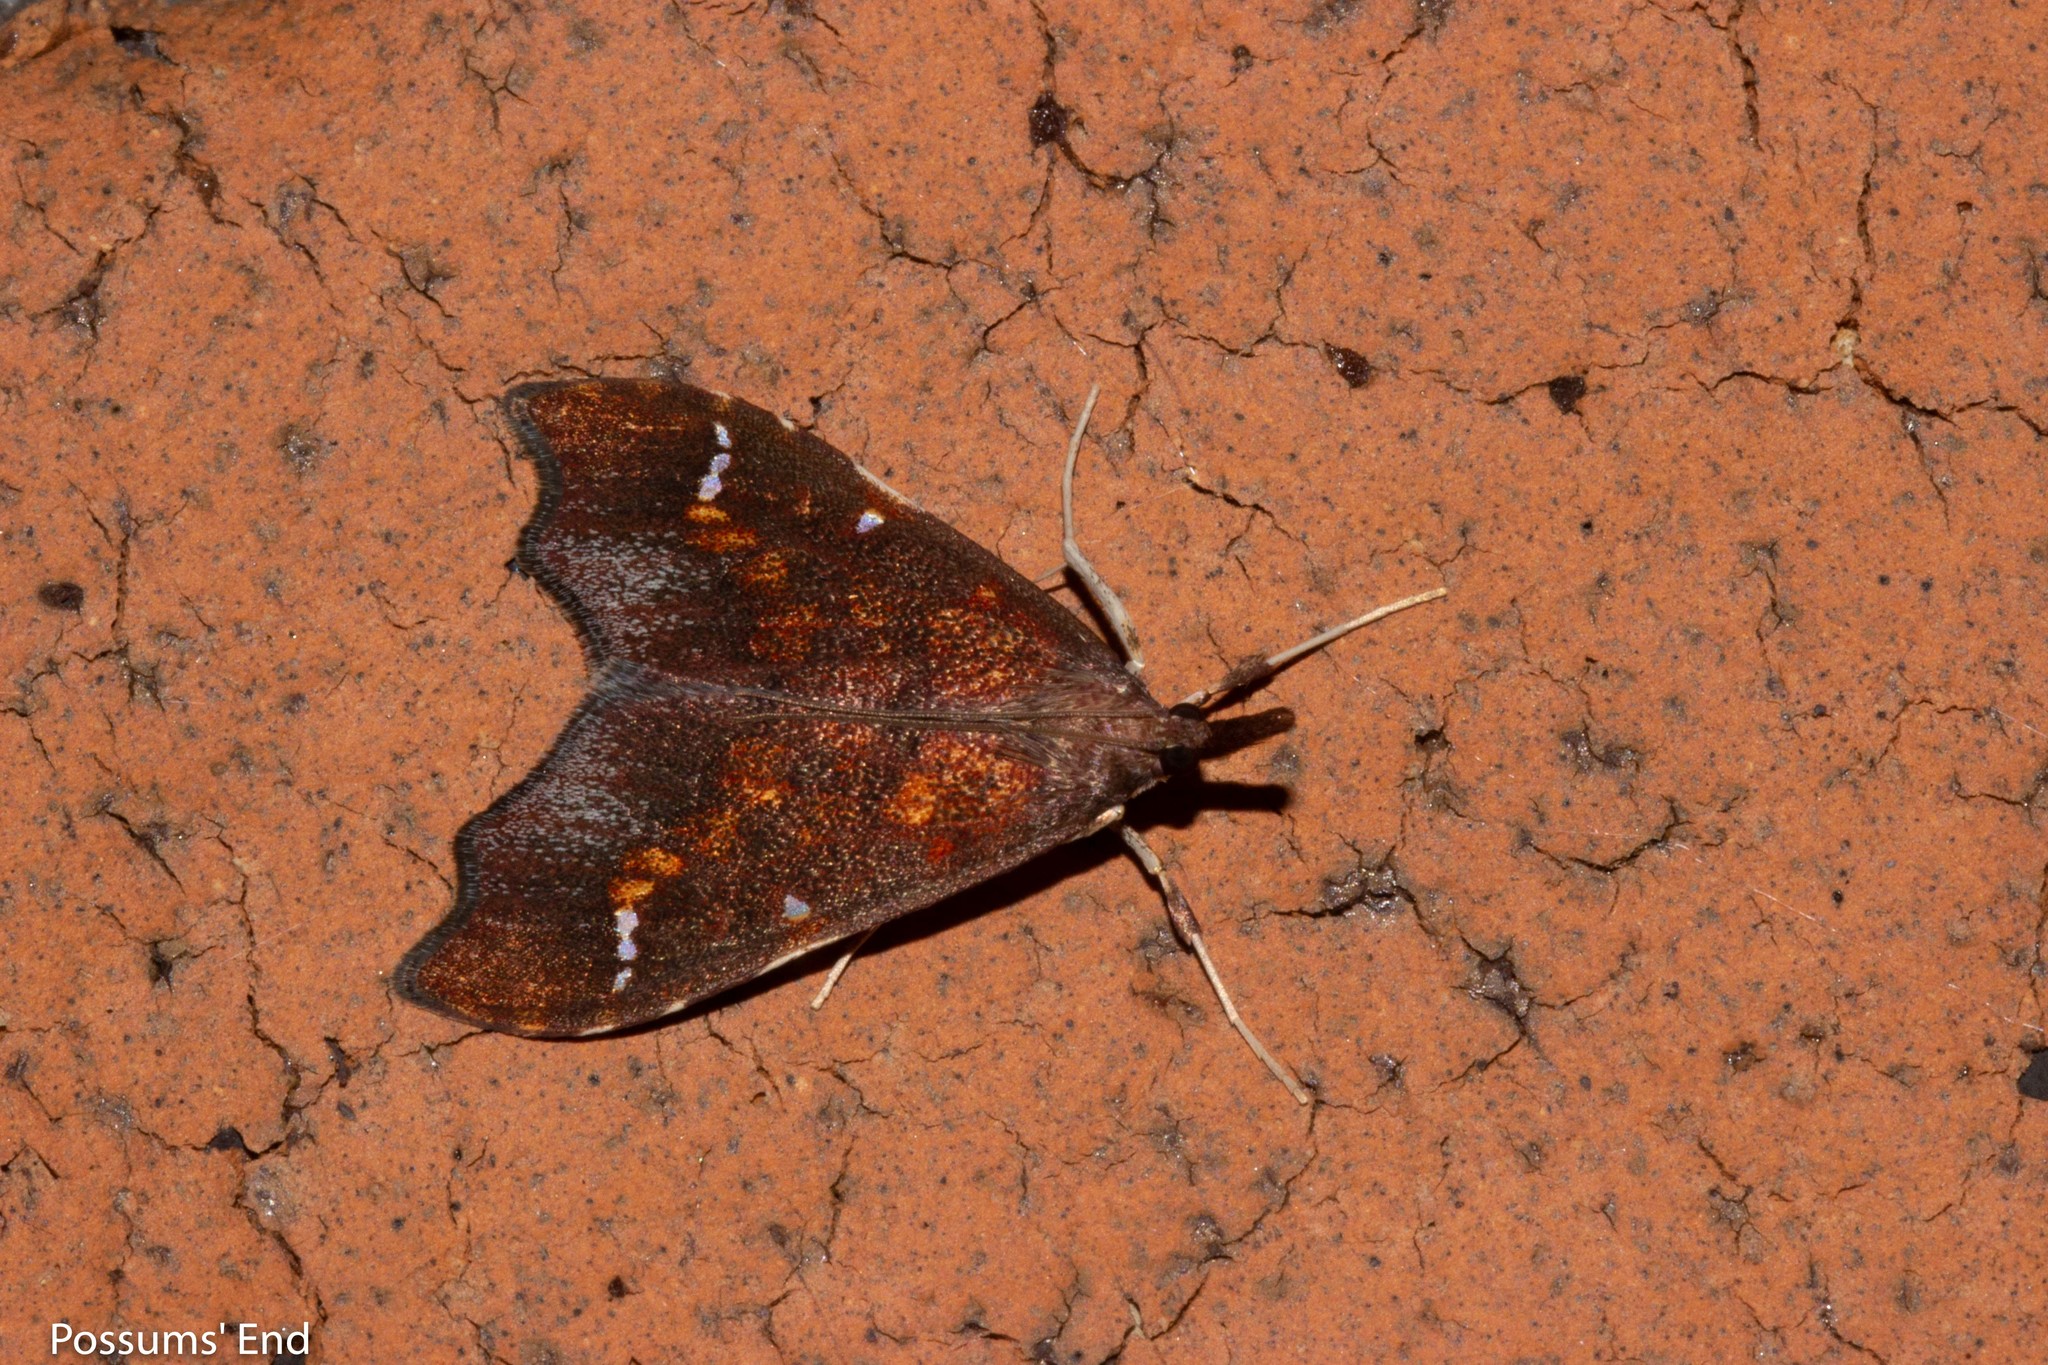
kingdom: Animalia
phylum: Arthropoda
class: Insecta
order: Lepidoptera
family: Crambidae
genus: Deana
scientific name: Deana hybreasalis
